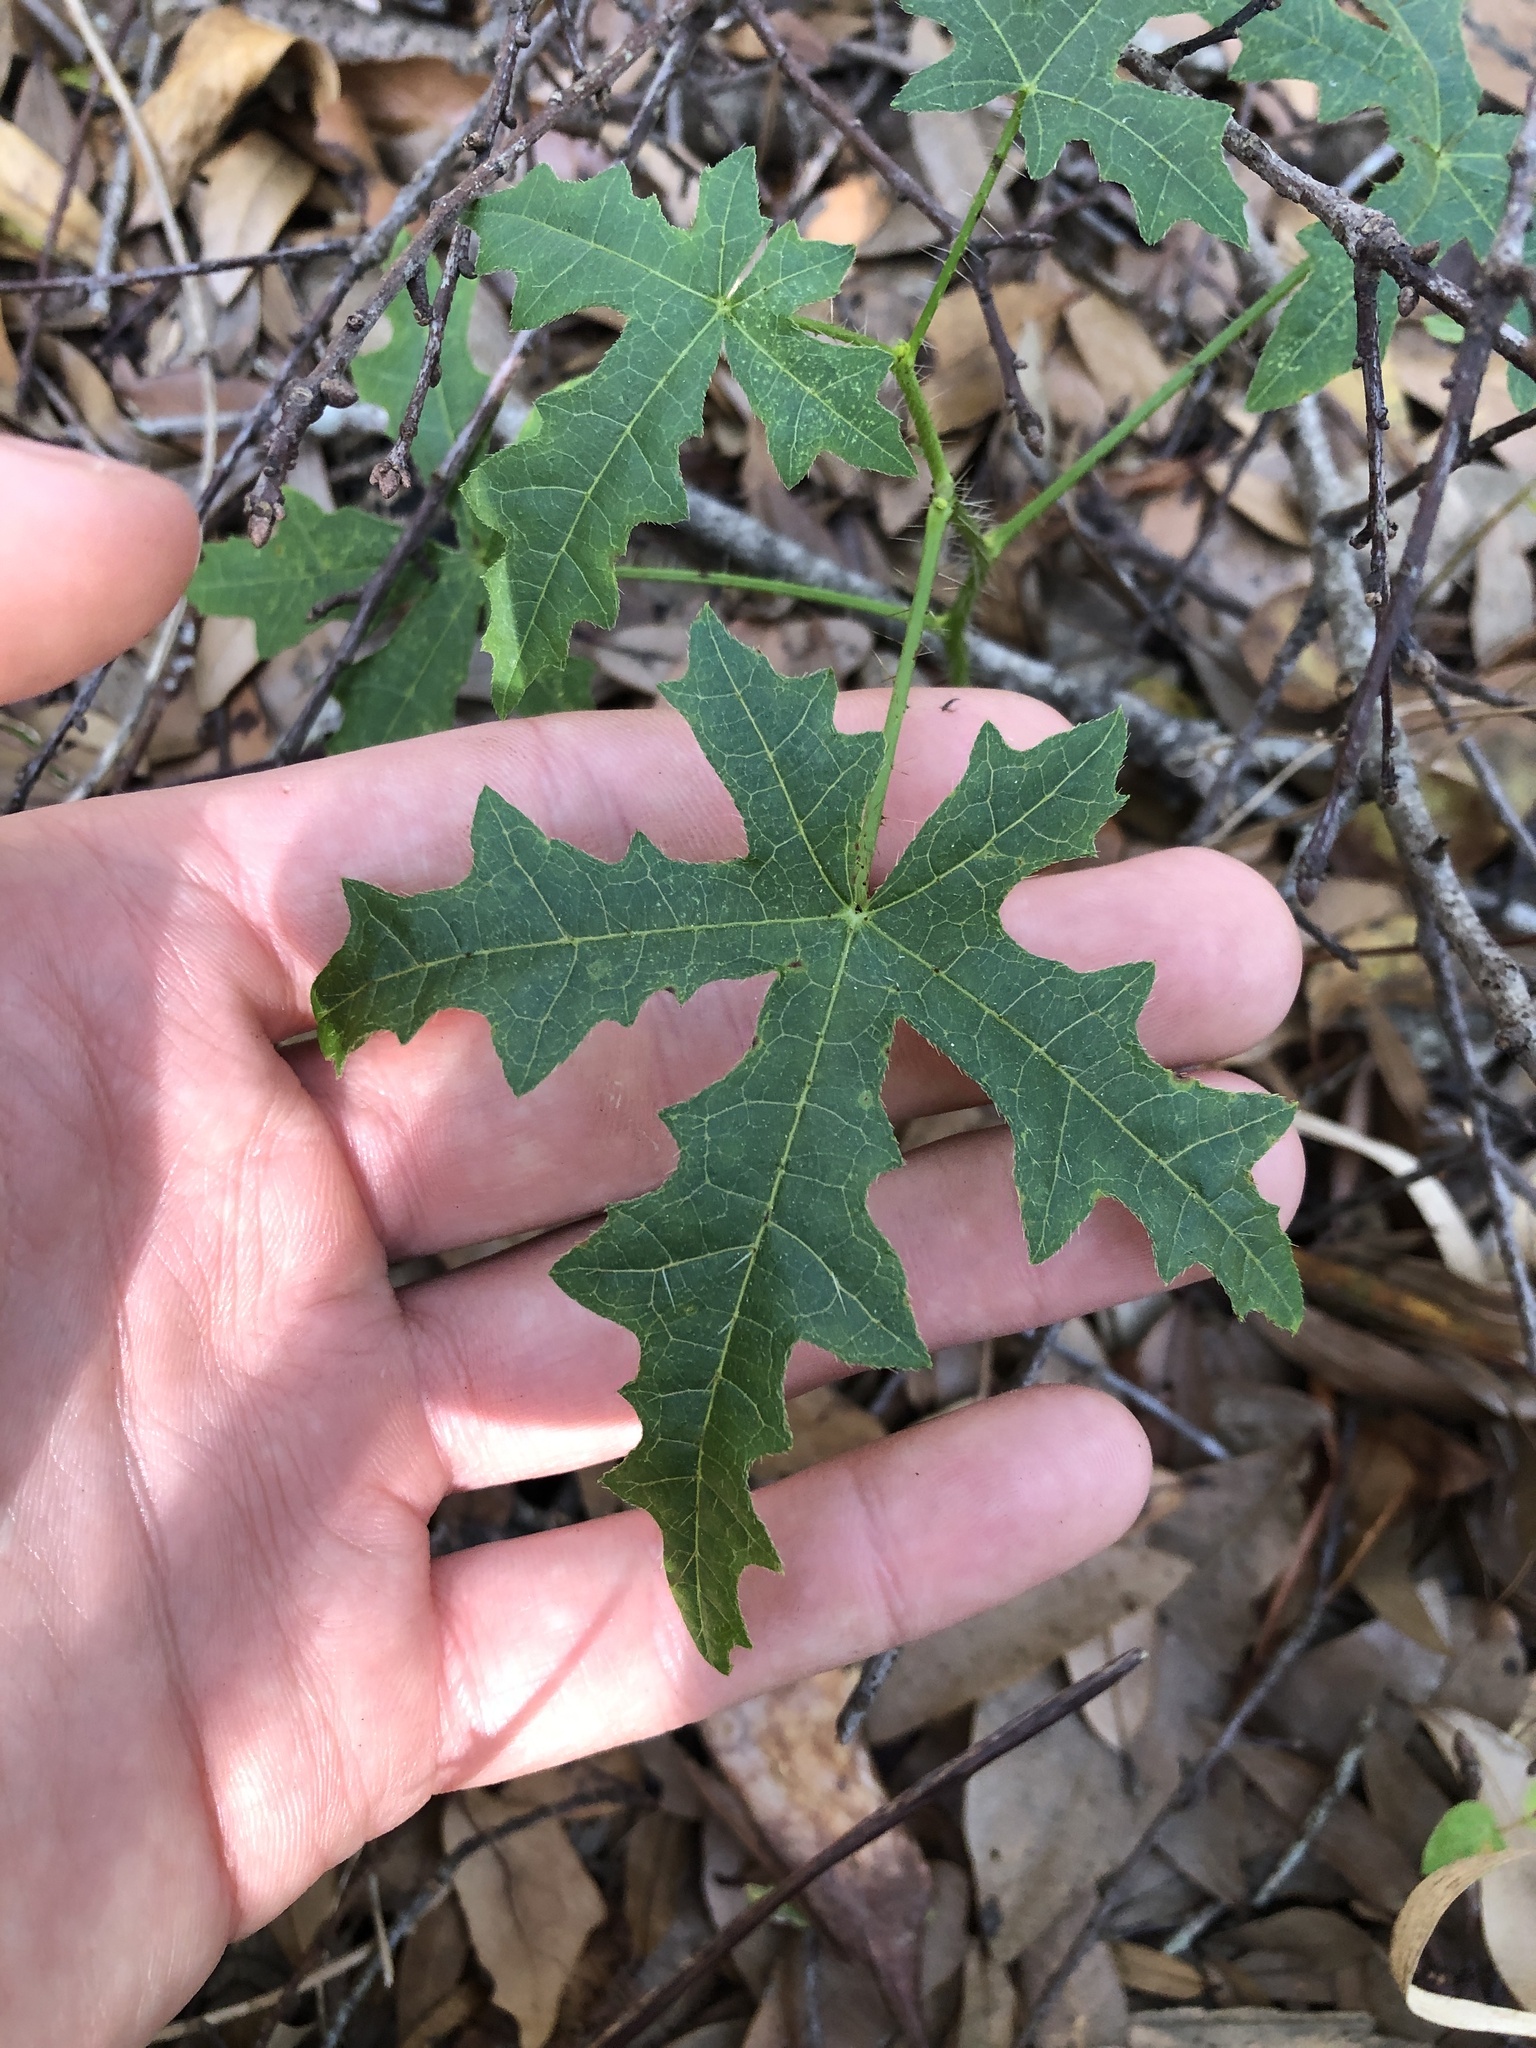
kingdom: Plantae
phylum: Tracheophyta
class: Magnoliopsida
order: Malpighiales
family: Euphorbiaceae
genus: Cnidoscolus
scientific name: Cnidoscolus stimulosus
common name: Bull-nettle
